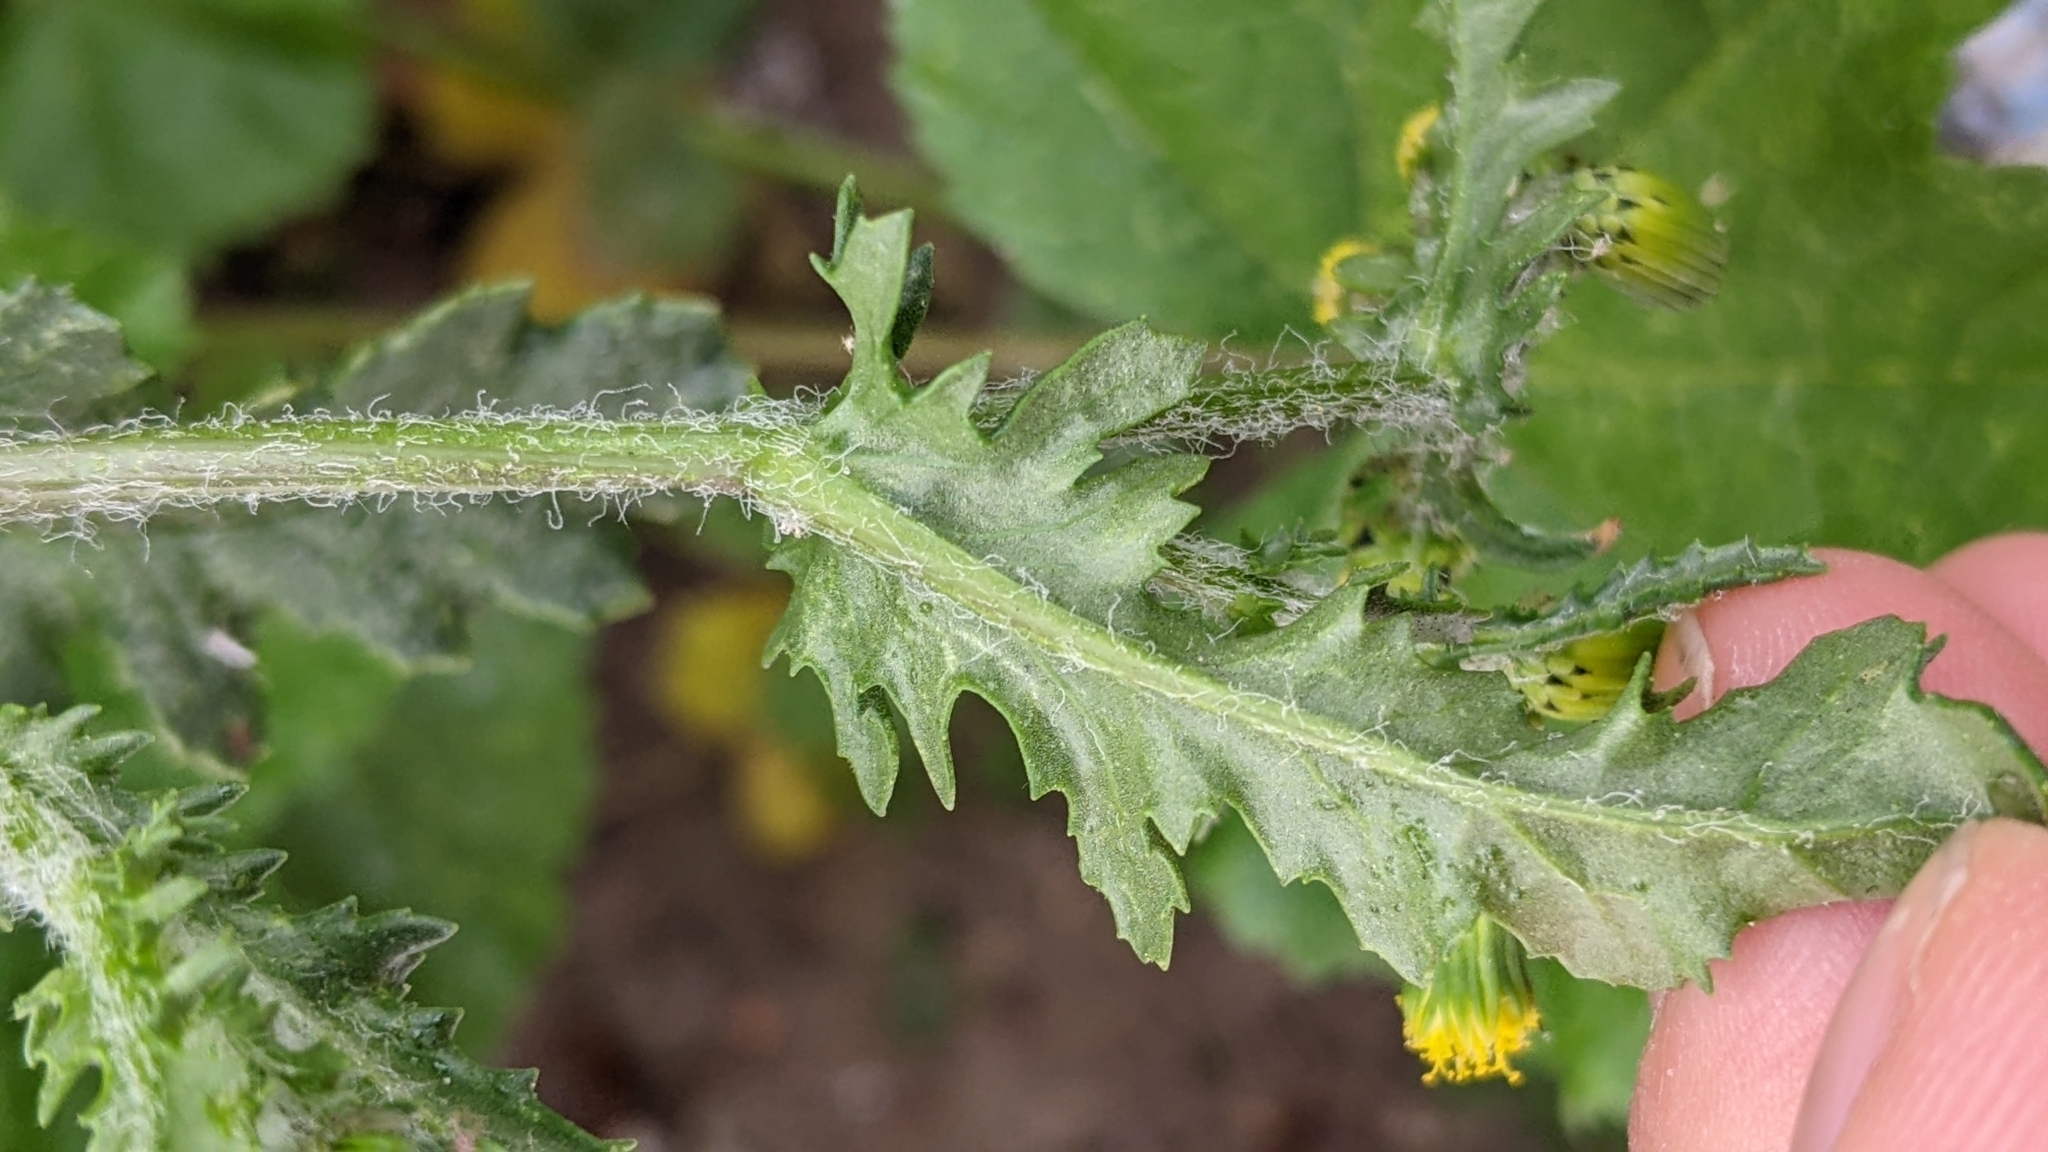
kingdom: Plantae
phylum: Tracheophyta
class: Magnoliopsida
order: Asterales
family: Asteraceae
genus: Senecio
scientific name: Senecio vulgaris
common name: Old-man-in-the-spring
